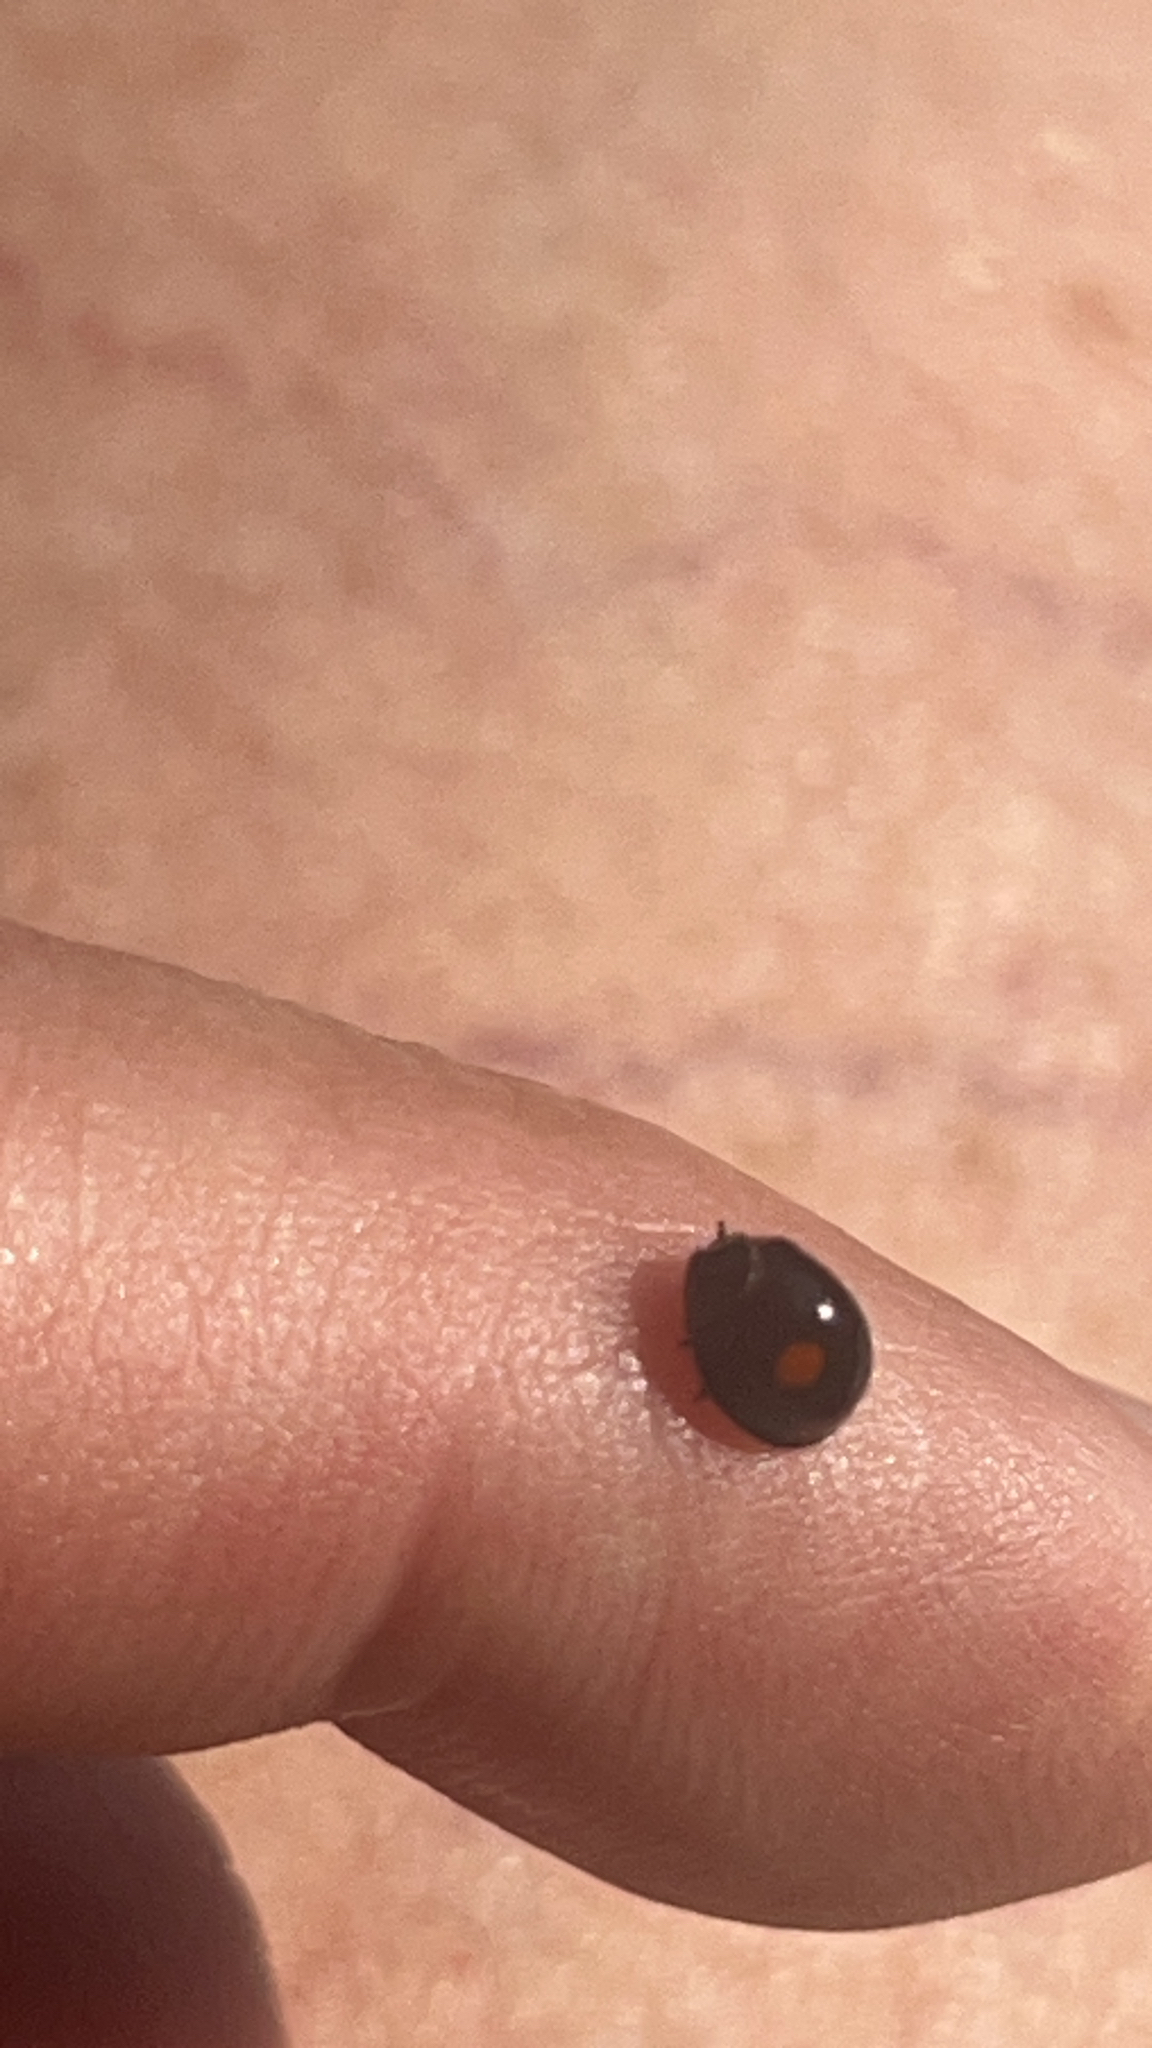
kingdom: Animalia
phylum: Arthropoda
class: Insecta
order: Coleoptera
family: Coccinellidae
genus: Chilocorus
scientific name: Chilocorus stigma
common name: Twicestabbed lady beetle
